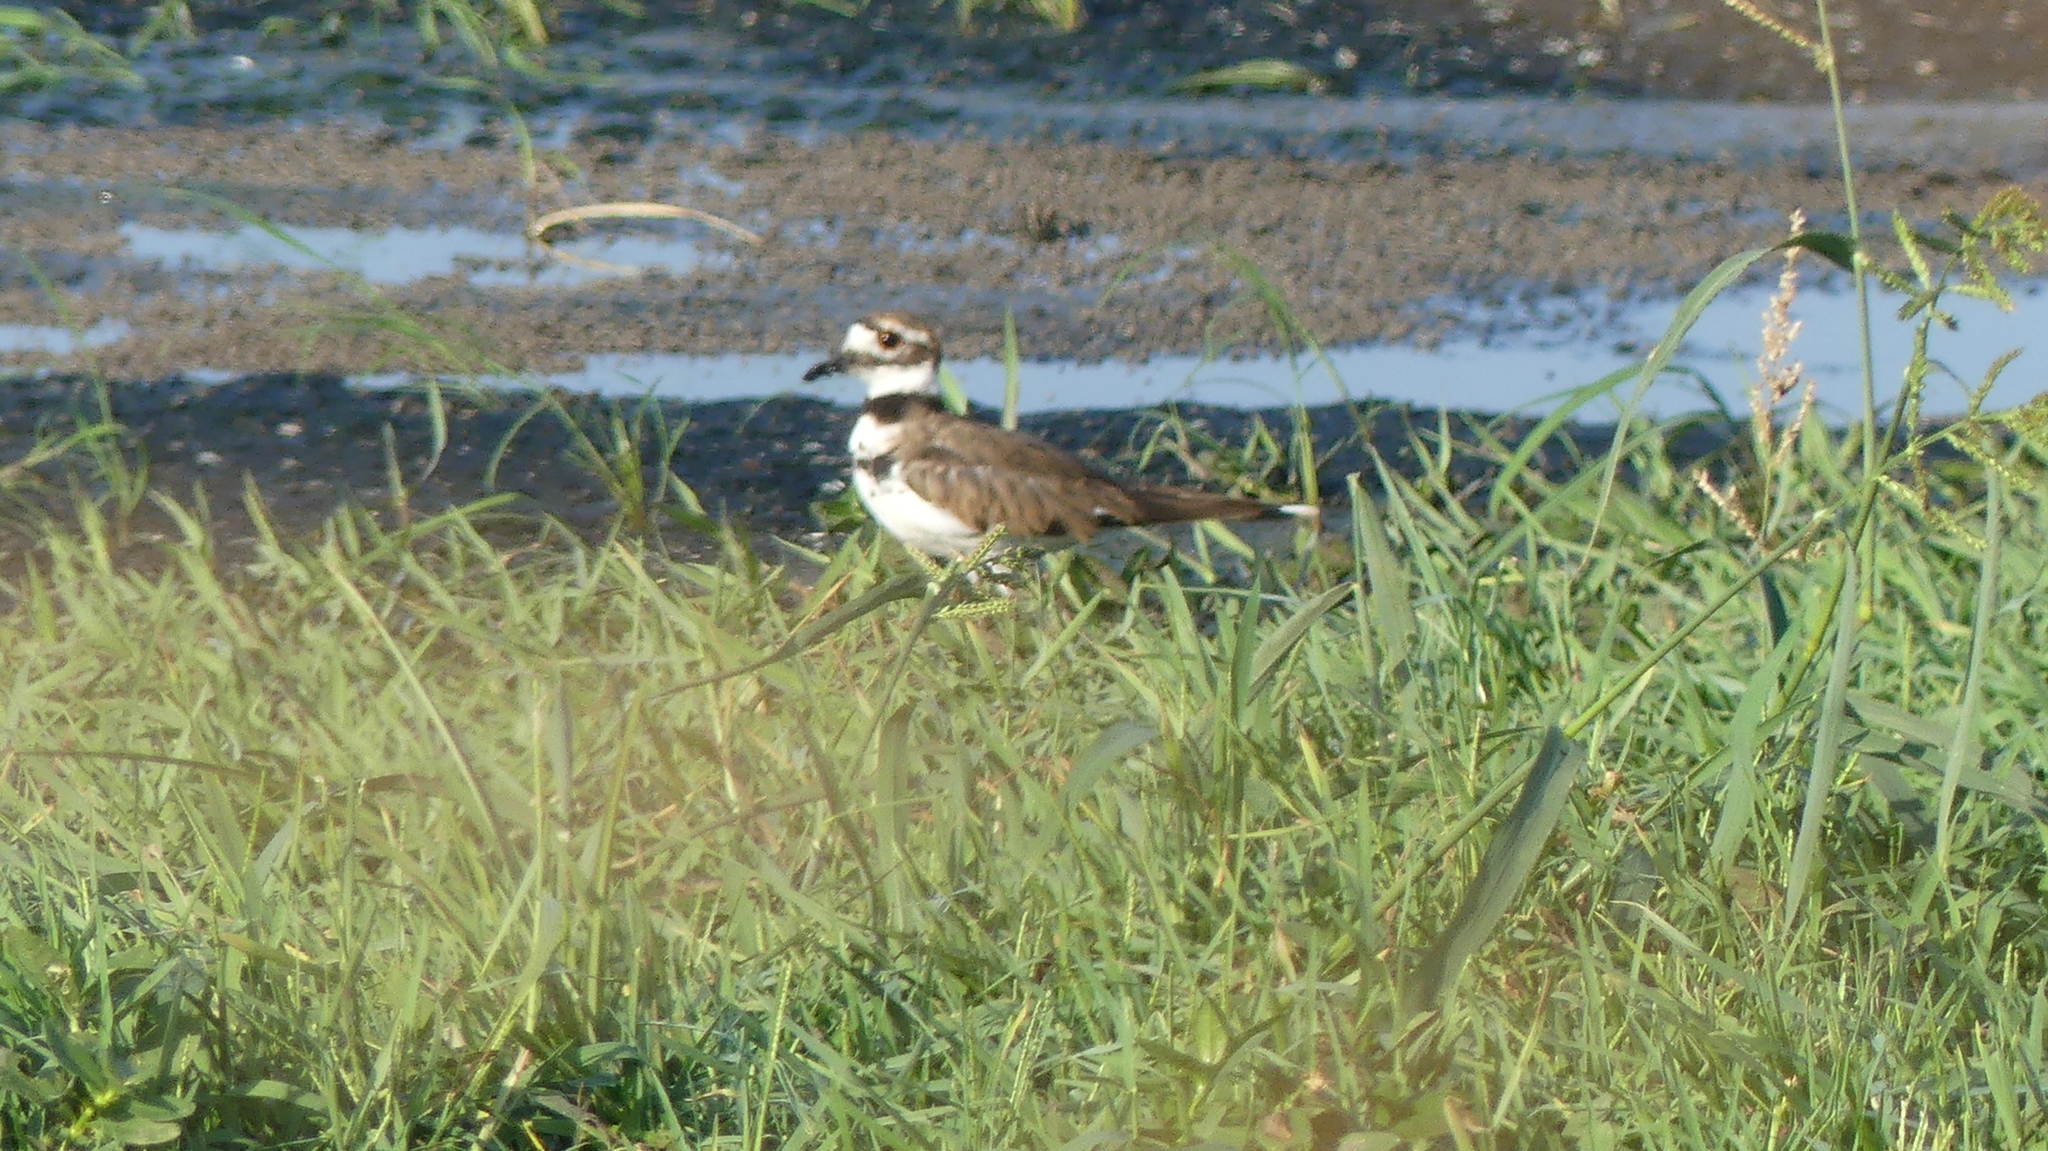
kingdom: Animalia
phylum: Chordata
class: Aves
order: Charadriiformes
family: Charadriidae
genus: Charadrius
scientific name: Charadrius vociferus
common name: Killdeer
